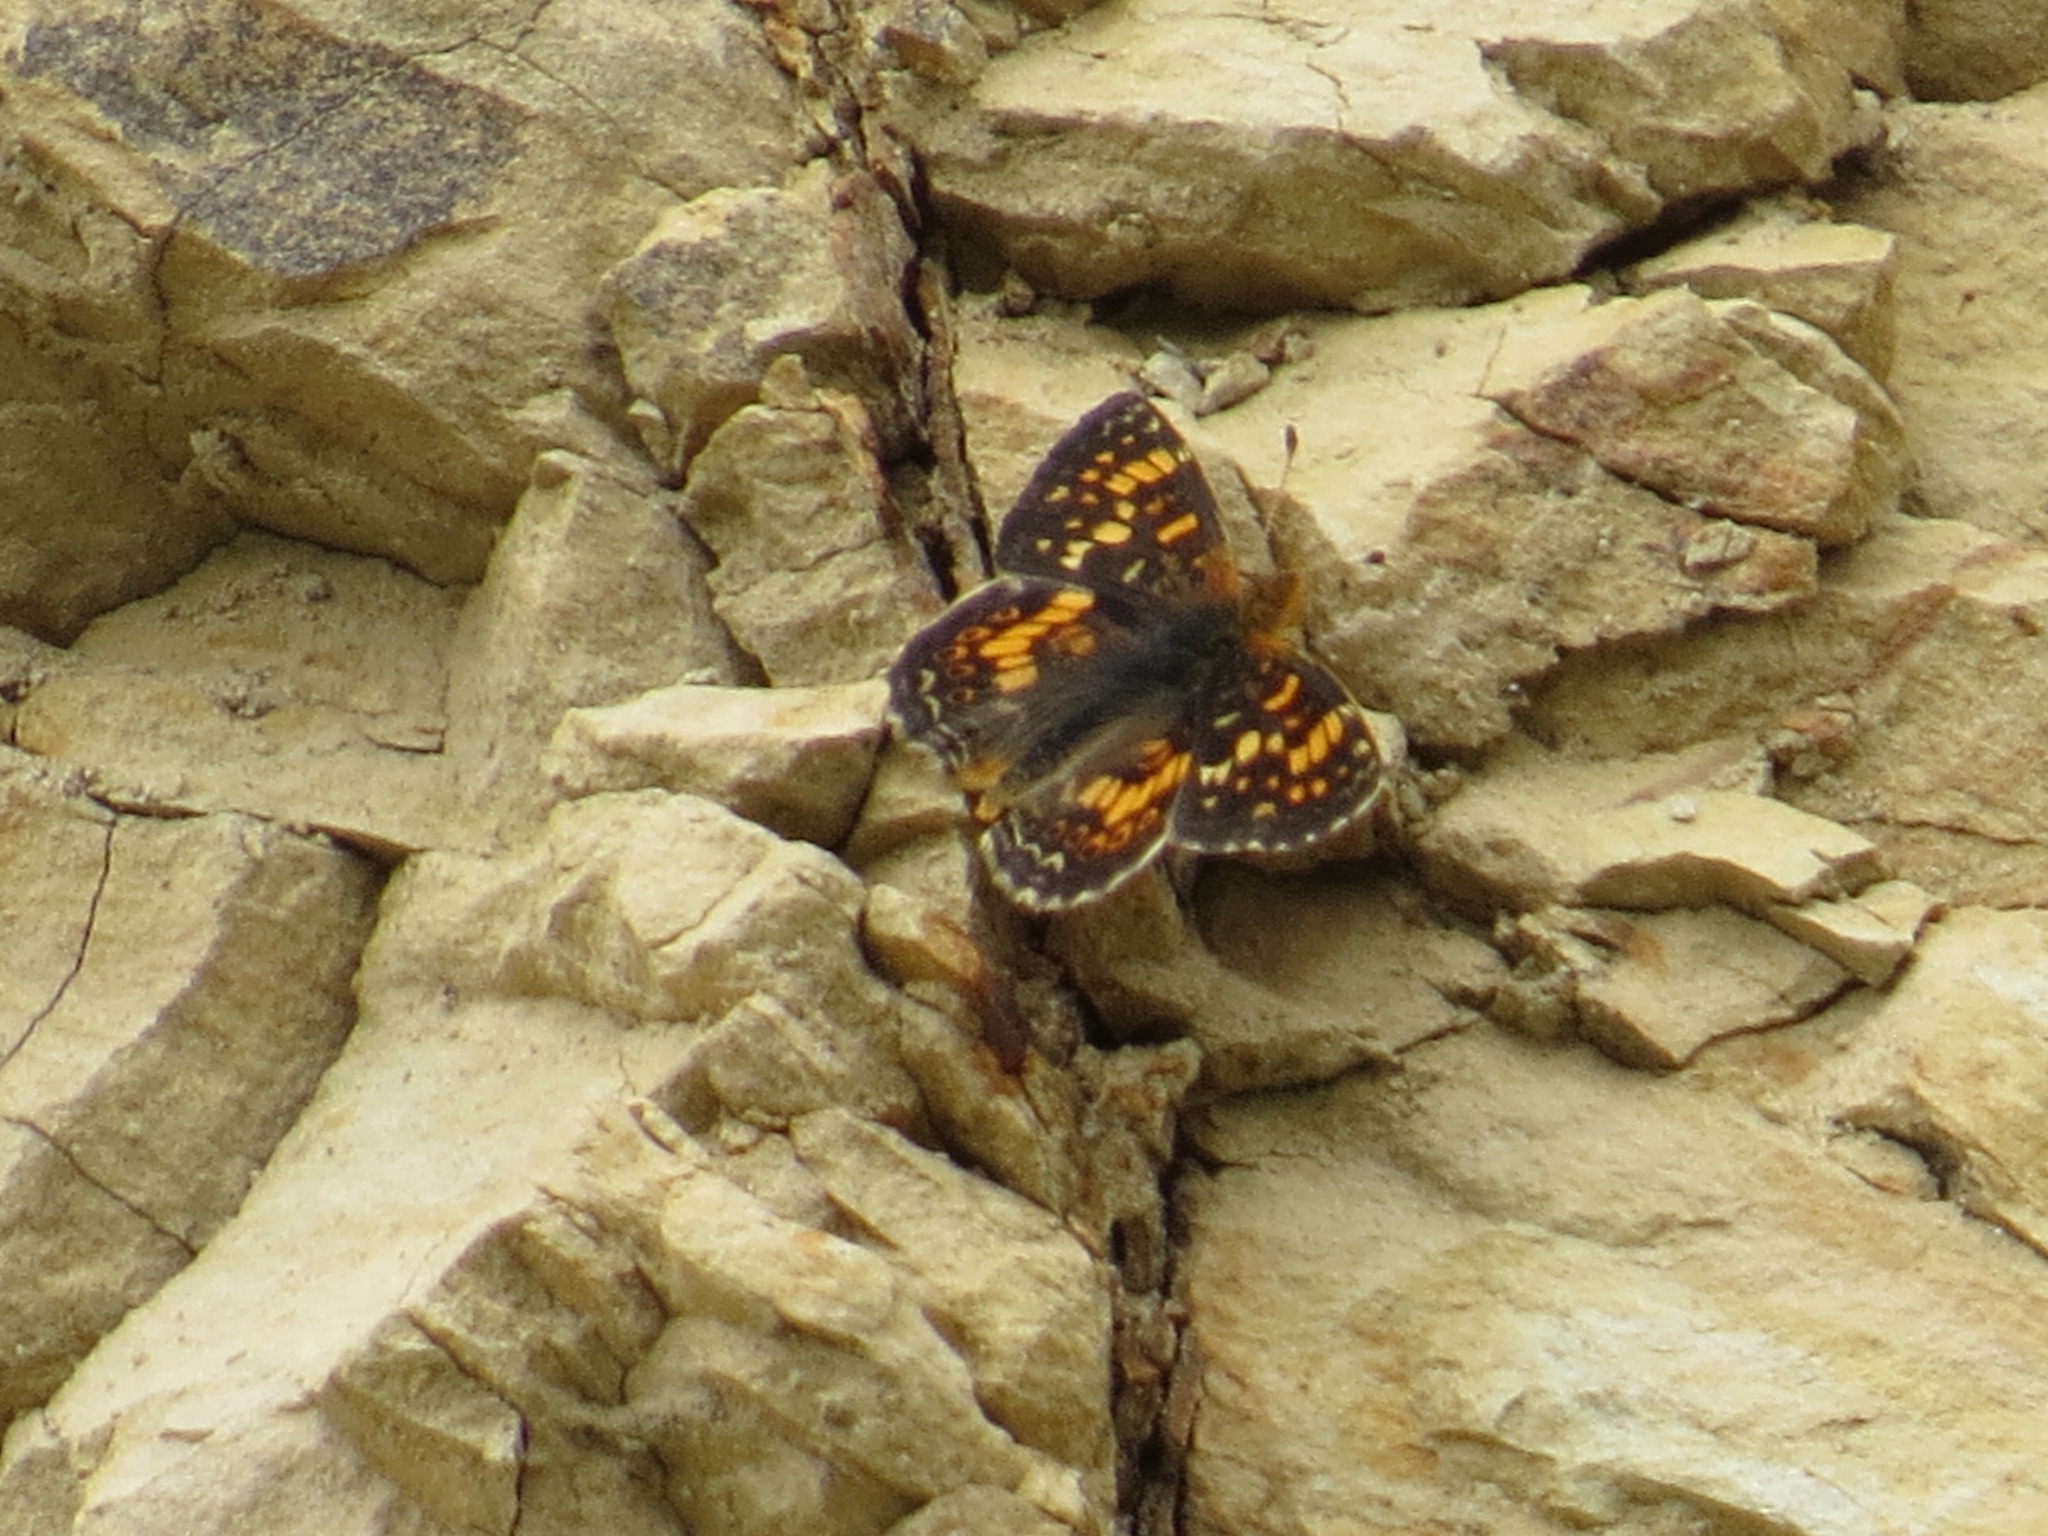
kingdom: Animalia
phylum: Arthropoda
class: Insecta
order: Lepidoptera
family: Nymphalidae
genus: Phyciodes
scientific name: Phyciodes tharos
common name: Pearl crescent
